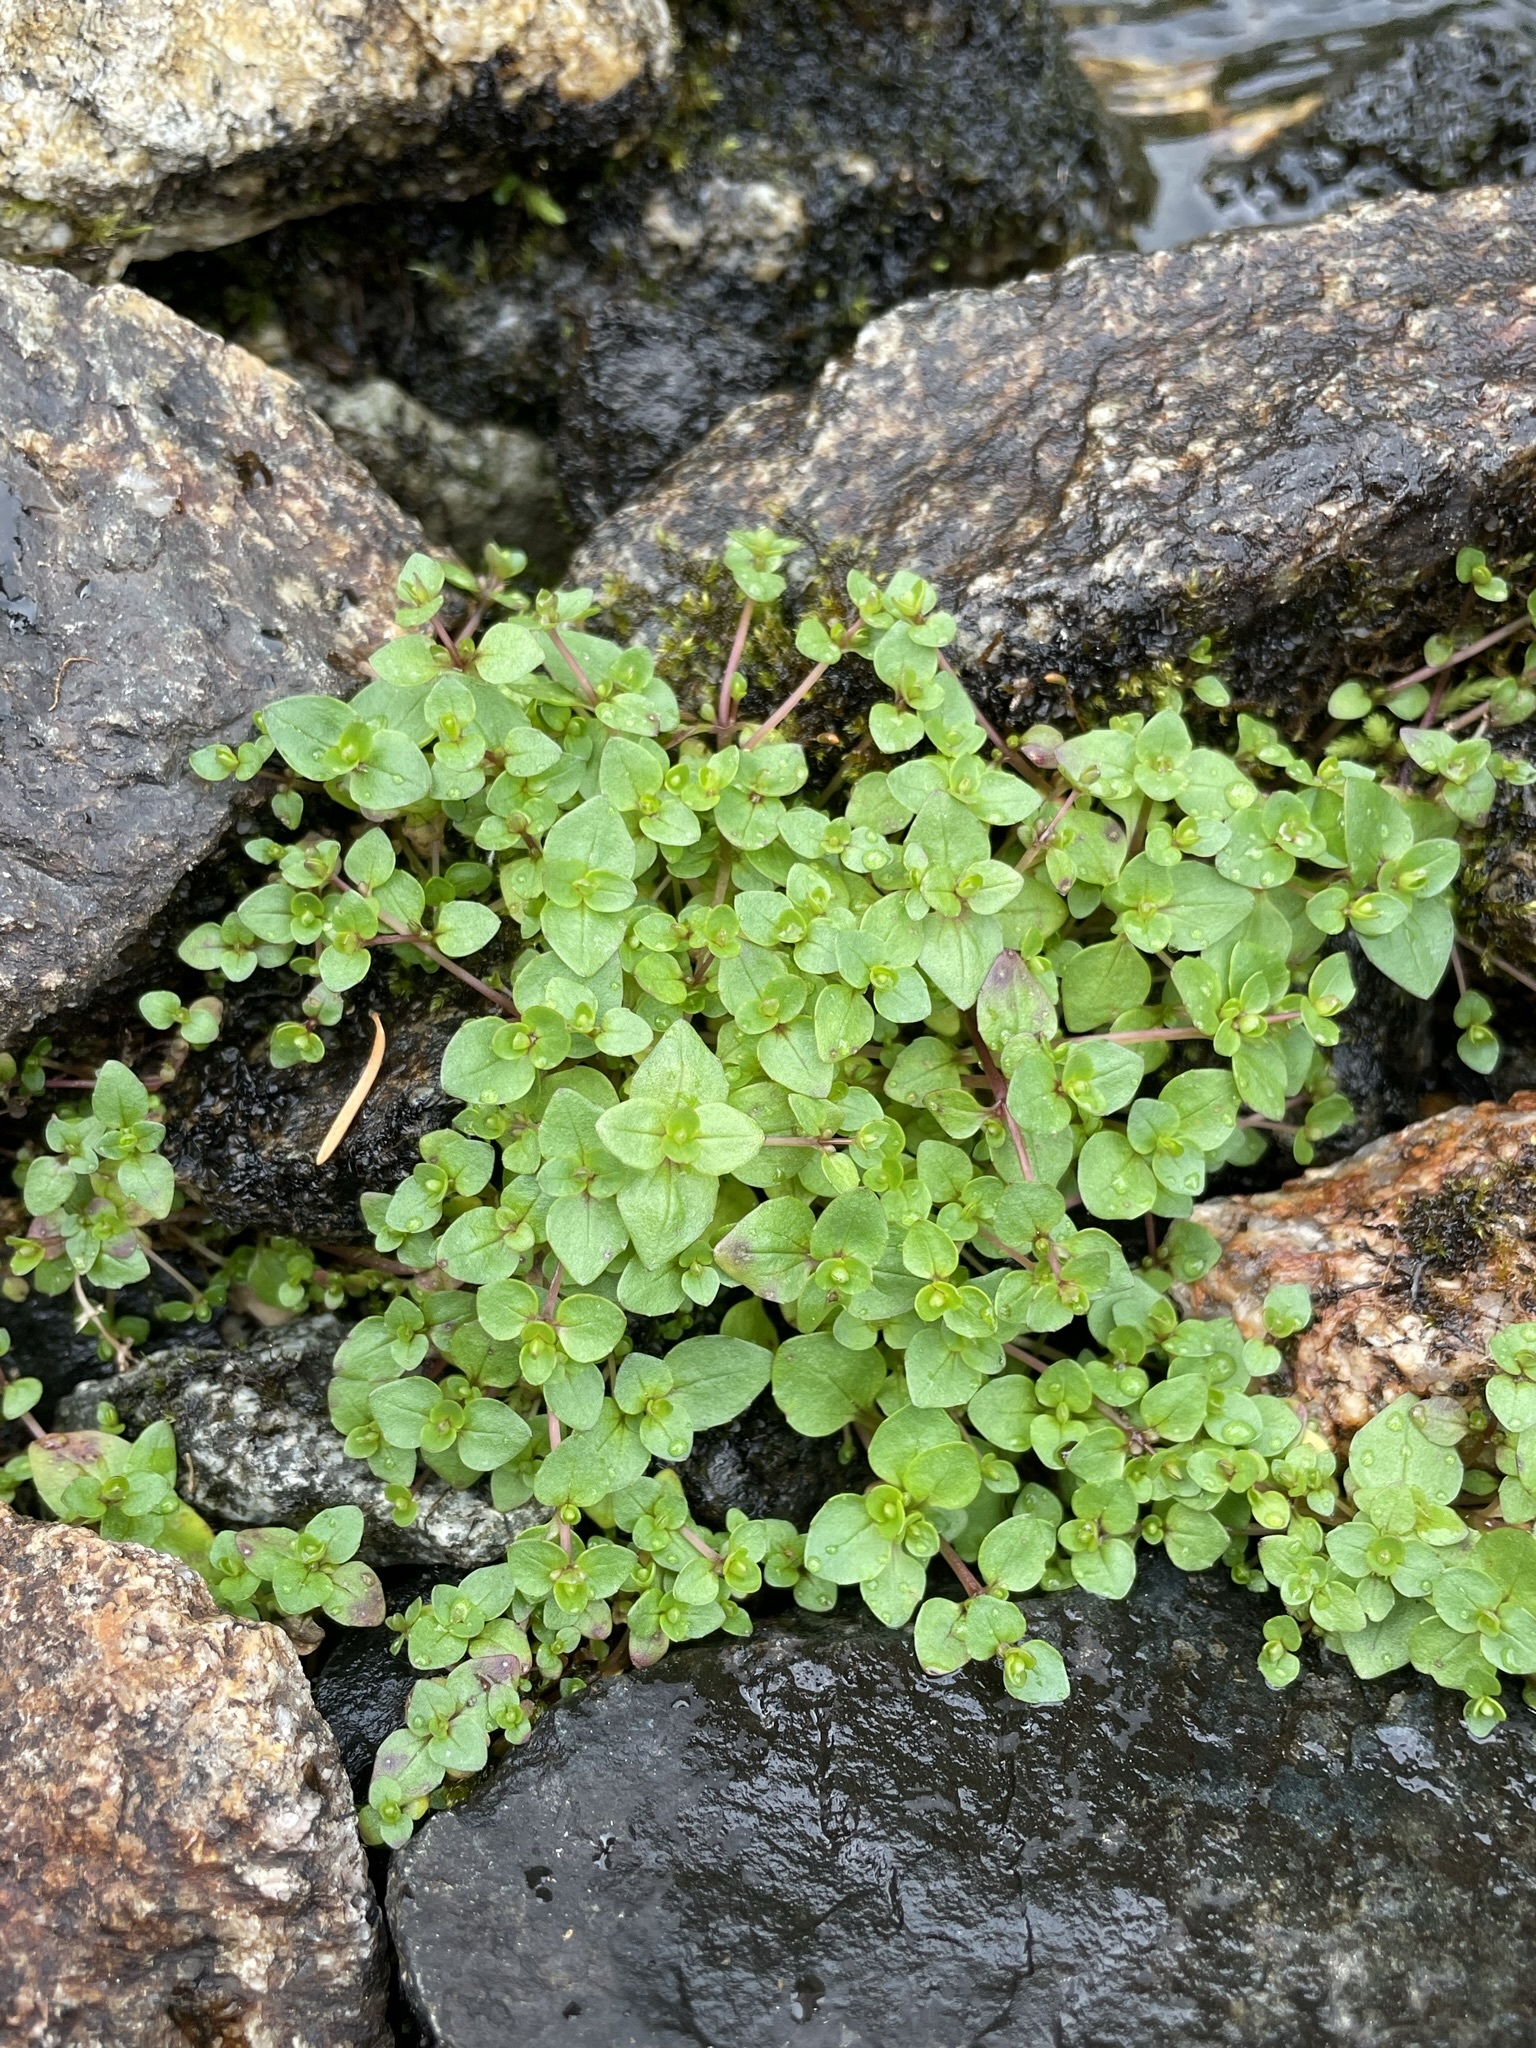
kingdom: Plantae
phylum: Tracheophyta
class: Magnoliopsida
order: Lamiales
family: Phrymaceae
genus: Erythranthe
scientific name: Erythranthe caespitosa
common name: Subalpine monkeyflower
